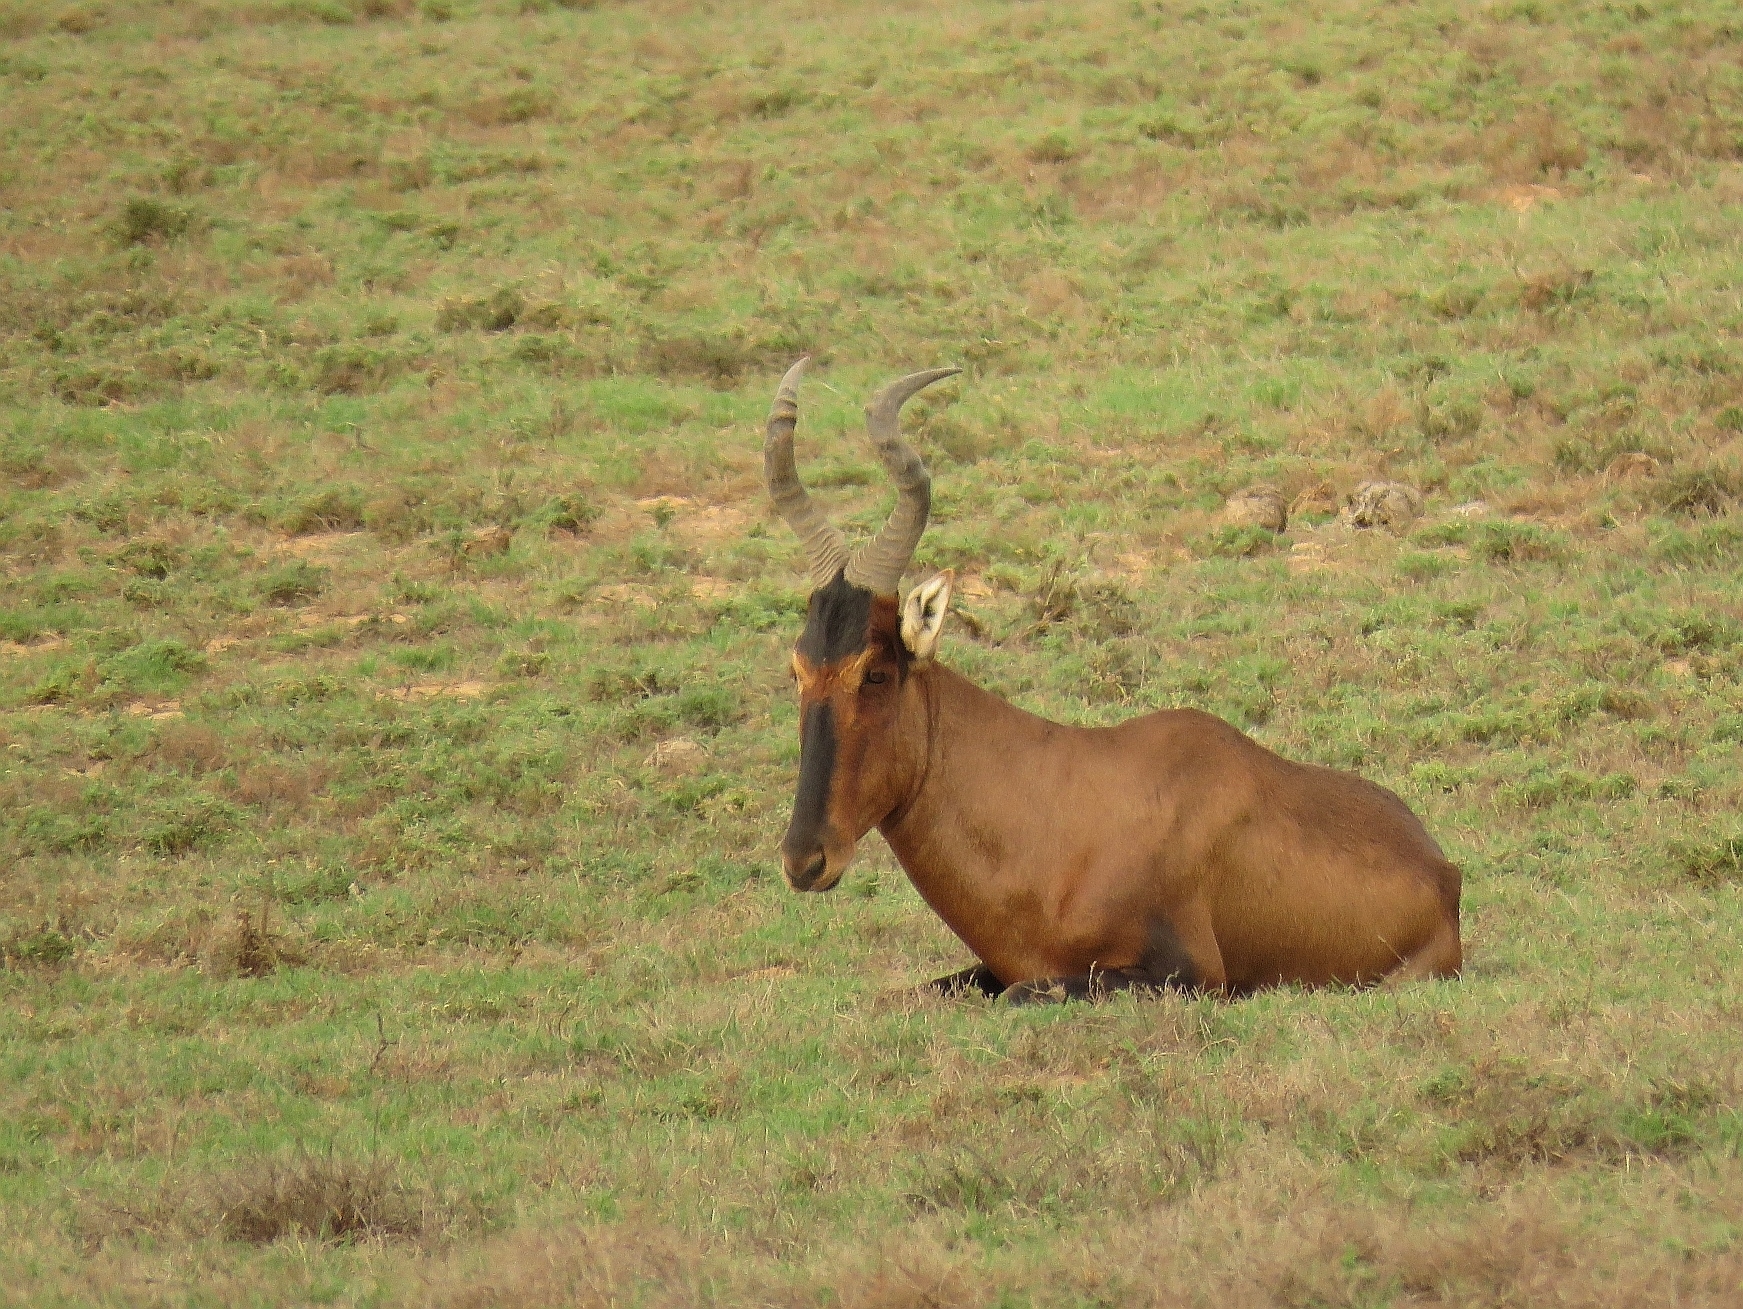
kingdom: Animalia
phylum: Chordata
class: Mammalia
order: Artiodactyla
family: Bovidae
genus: Alcelaphus
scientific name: Alcelaphus caama
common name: Red hartebeest
